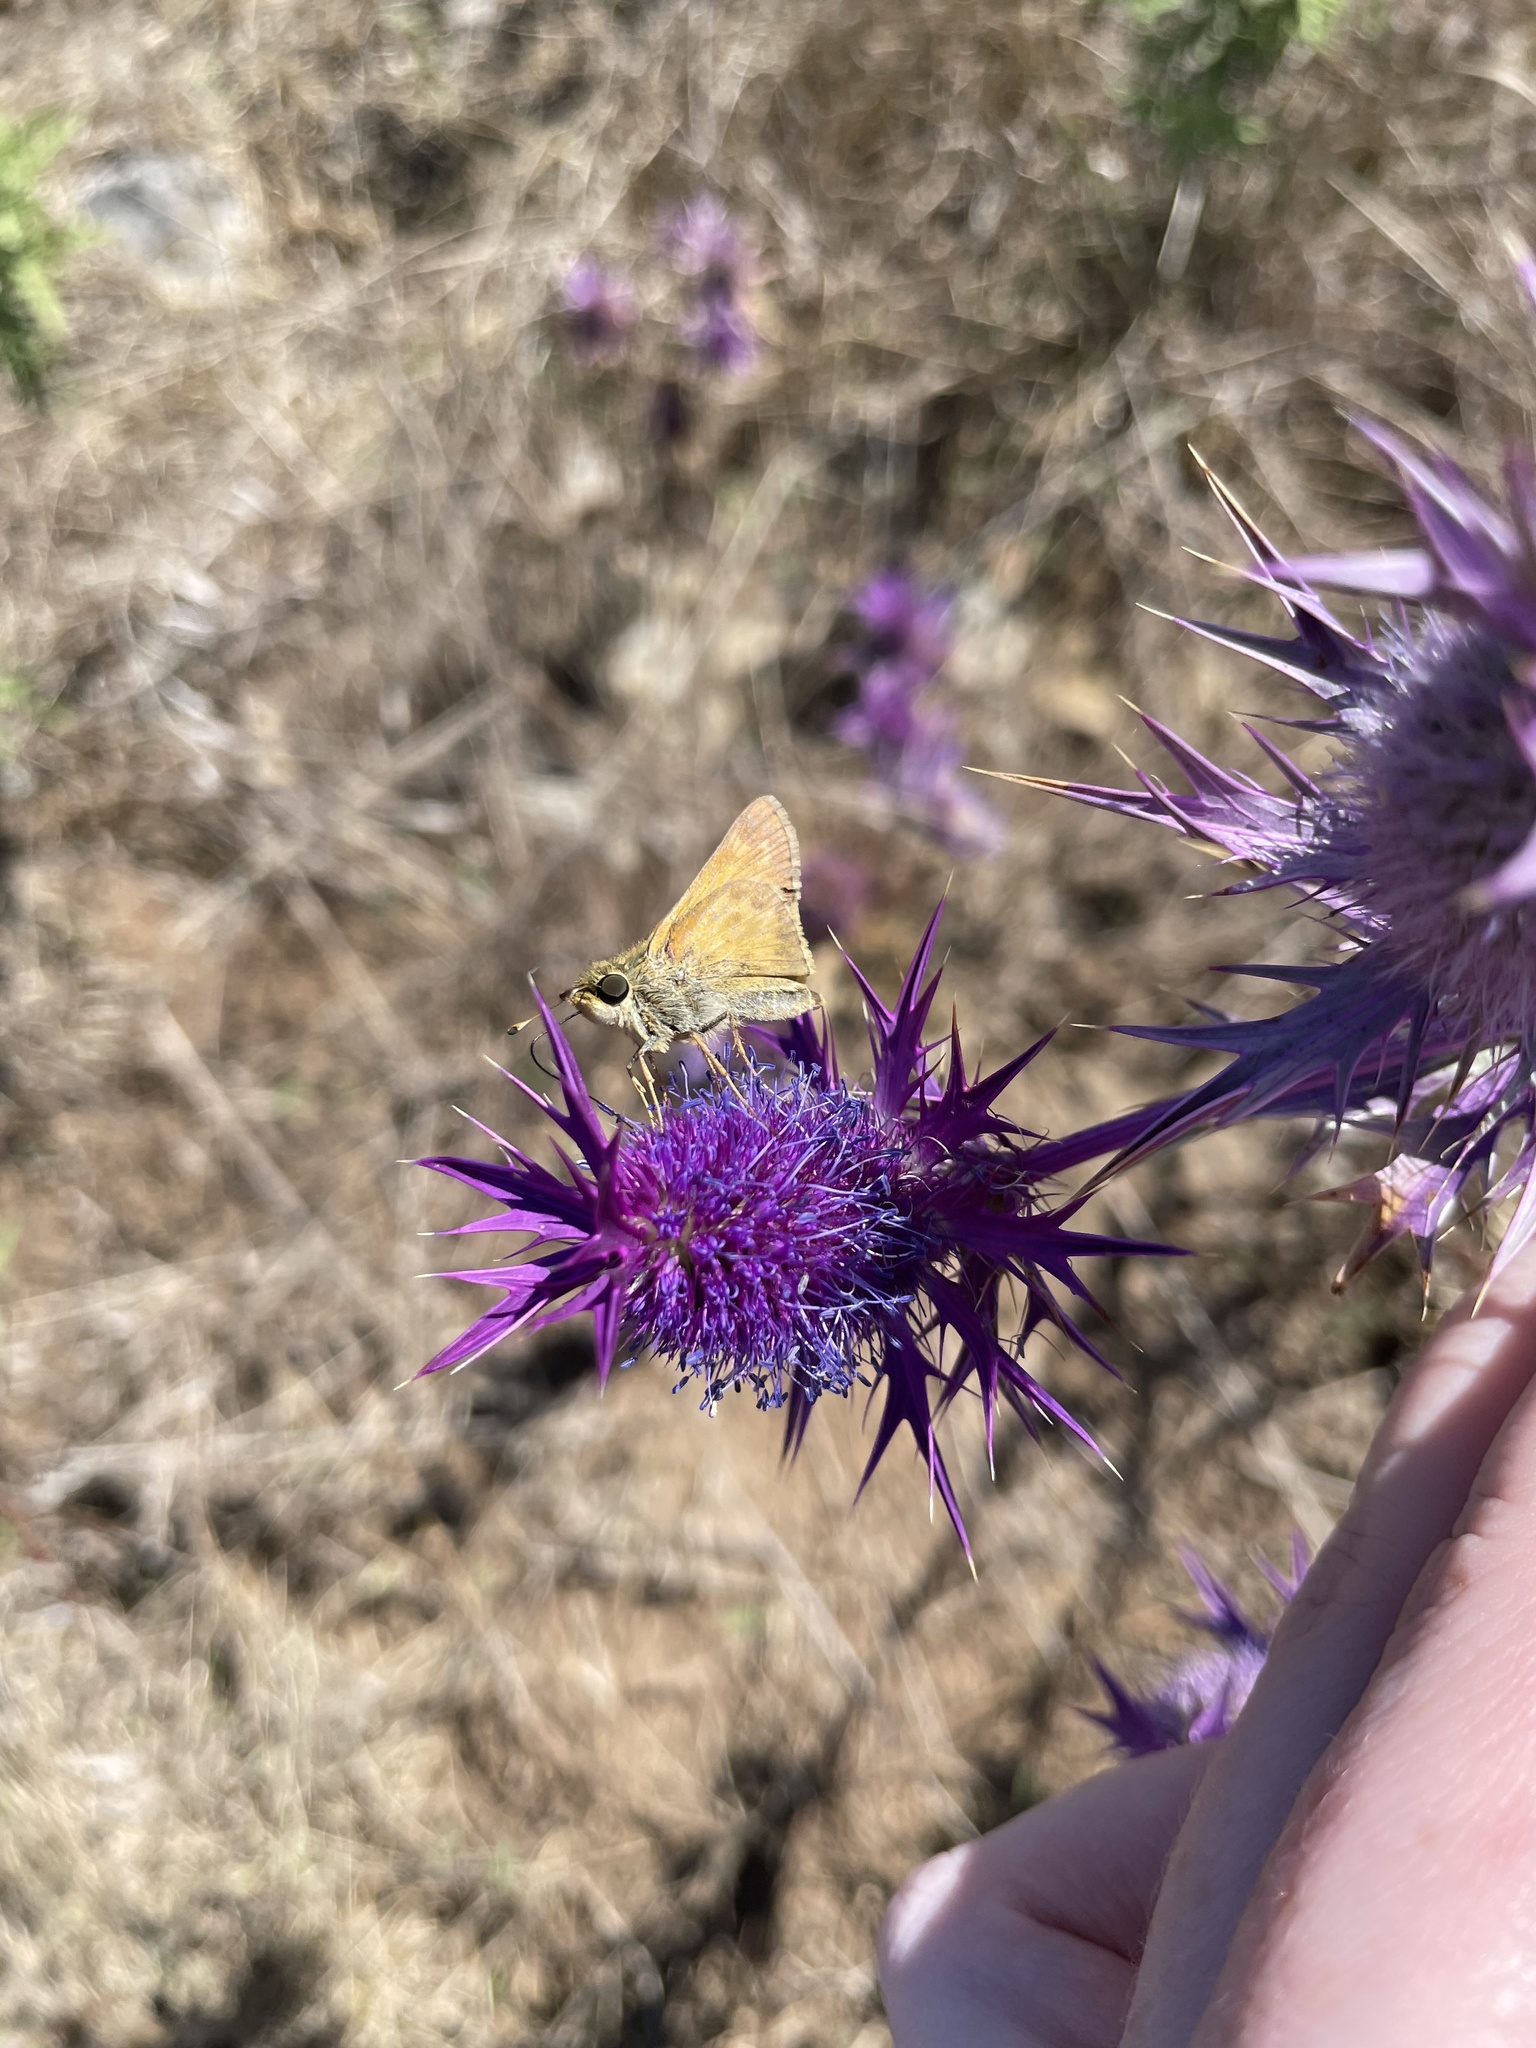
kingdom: Animalia
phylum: Arthropoda
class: Insecta
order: Lepidoptera
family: Hesperiidae
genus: Atalopedes
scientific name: Atalopedes
